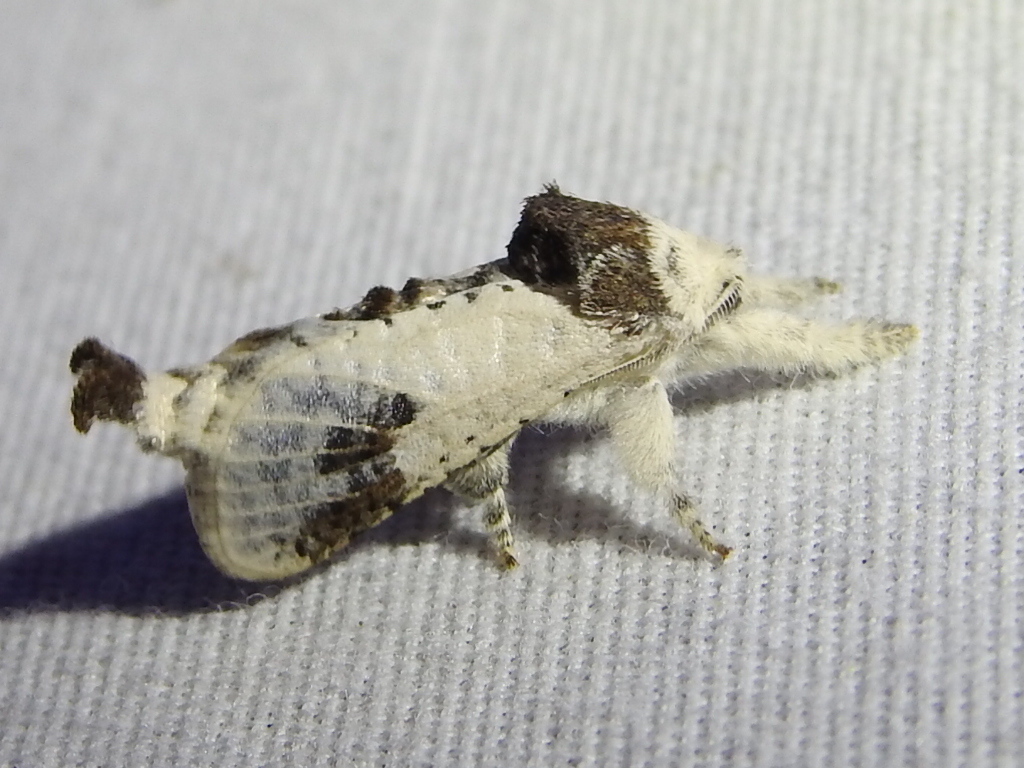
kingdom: Animalia
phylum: Arthropoda
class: Insecta
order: Lepidoptera
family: Cossidae
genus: Givira
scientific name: Givira theodori
